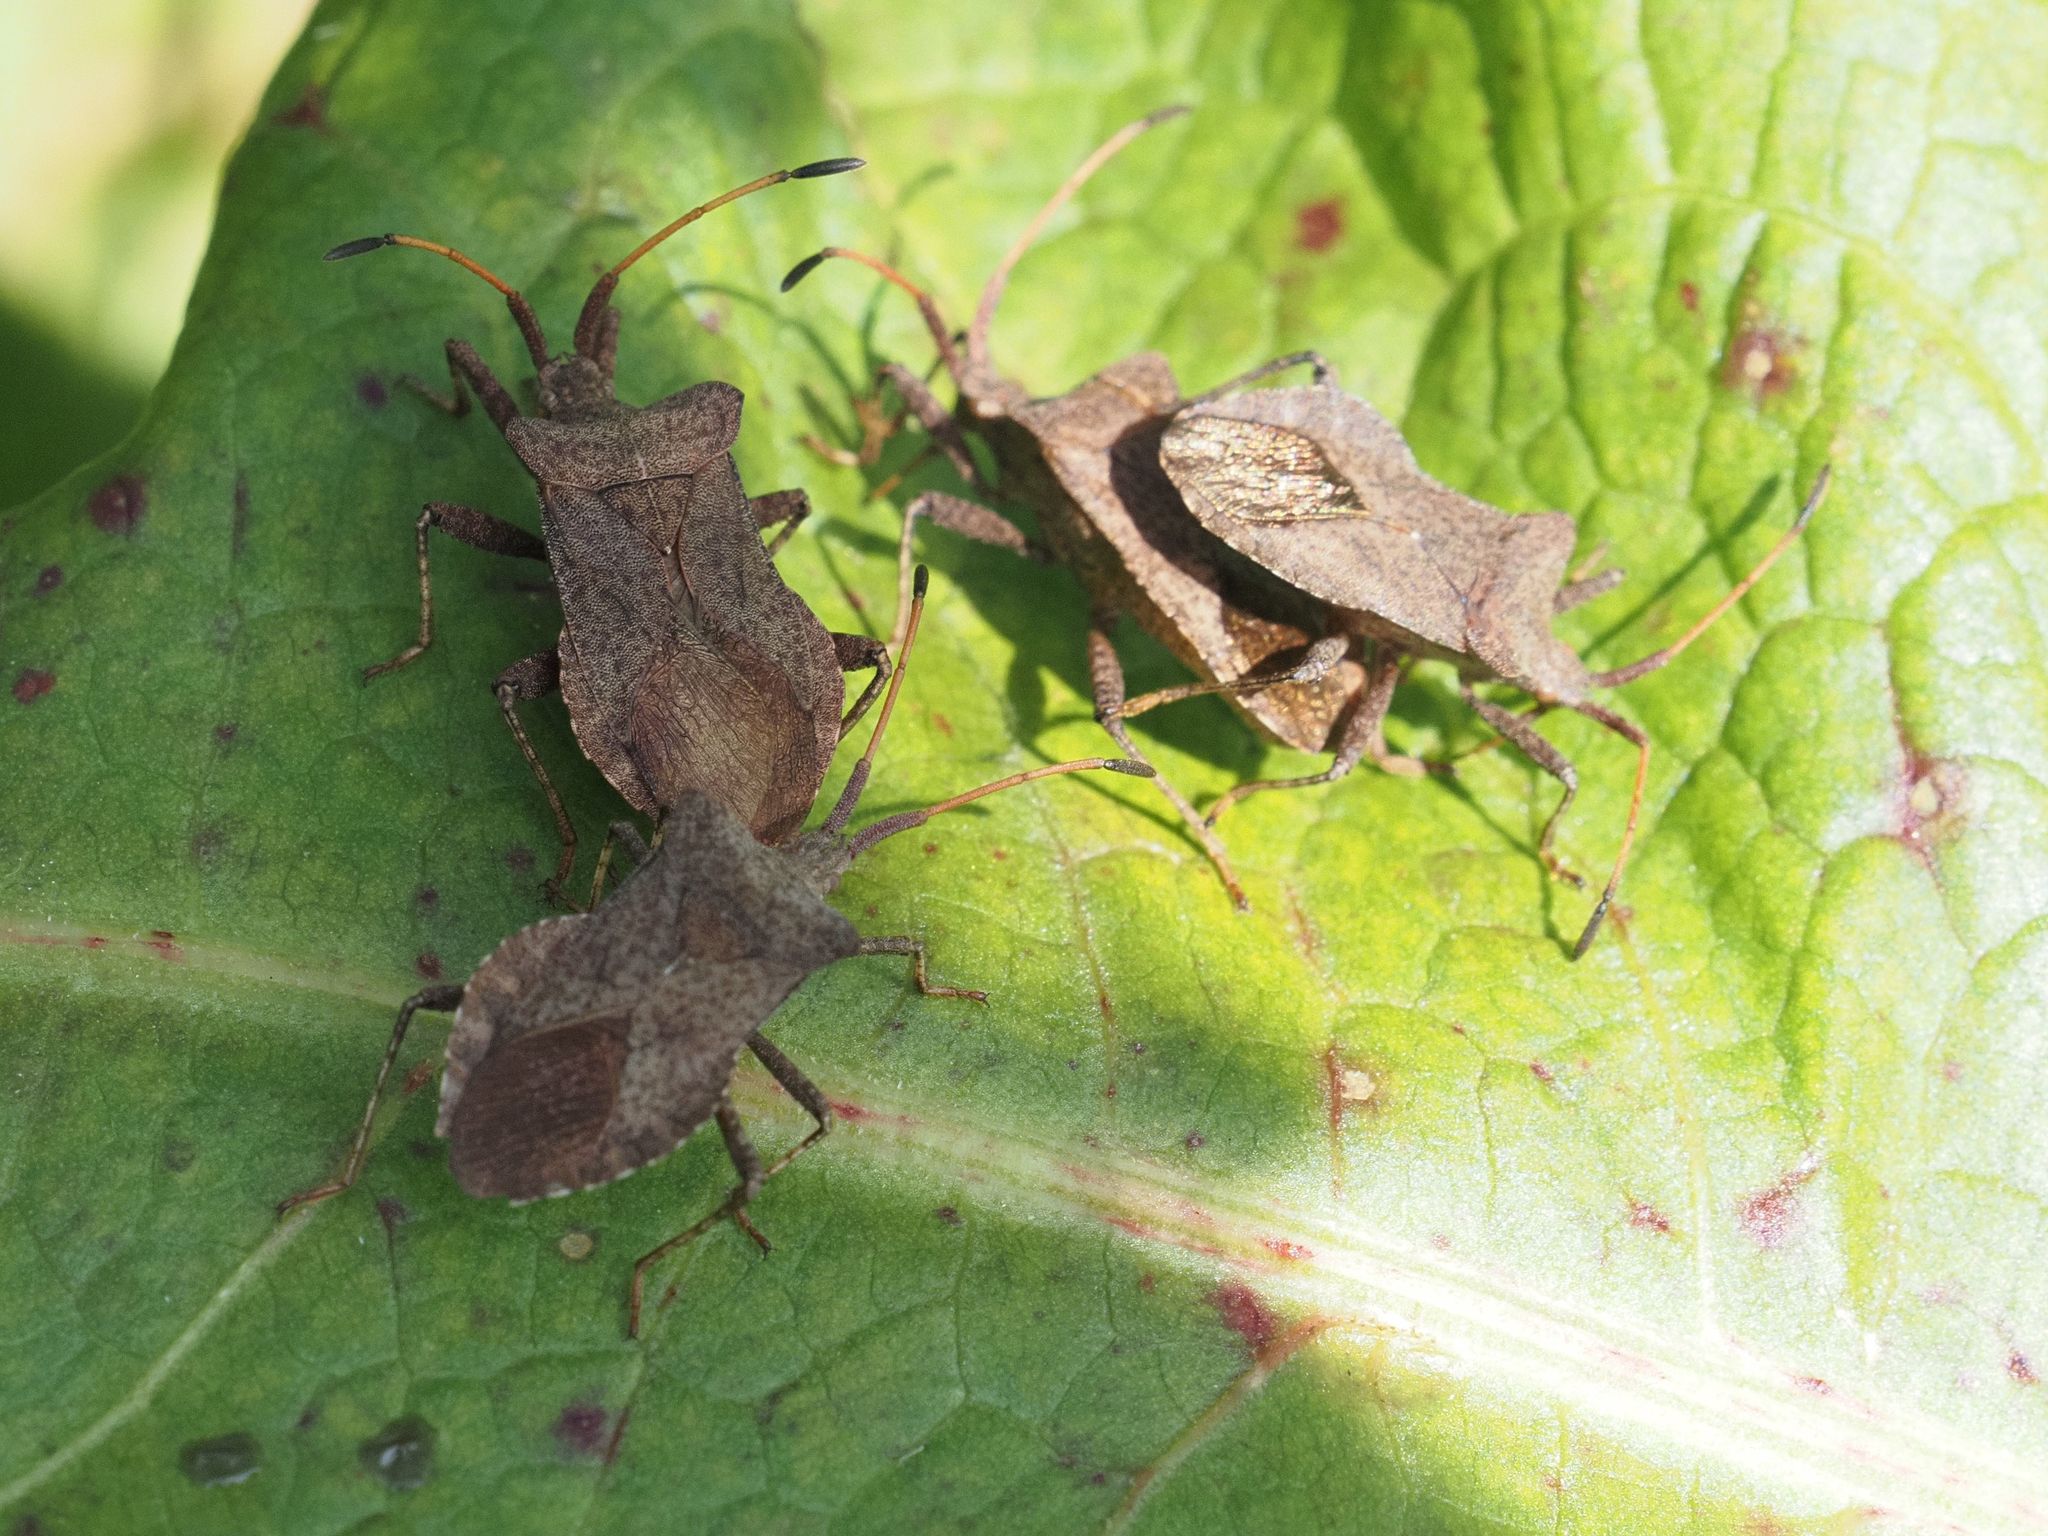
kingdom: Animalia
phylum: Arthropoda
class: Insecta
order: Hemiptera
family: Coreidae
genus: Coreus
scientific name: Coreus marginatus
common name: Dock bug
